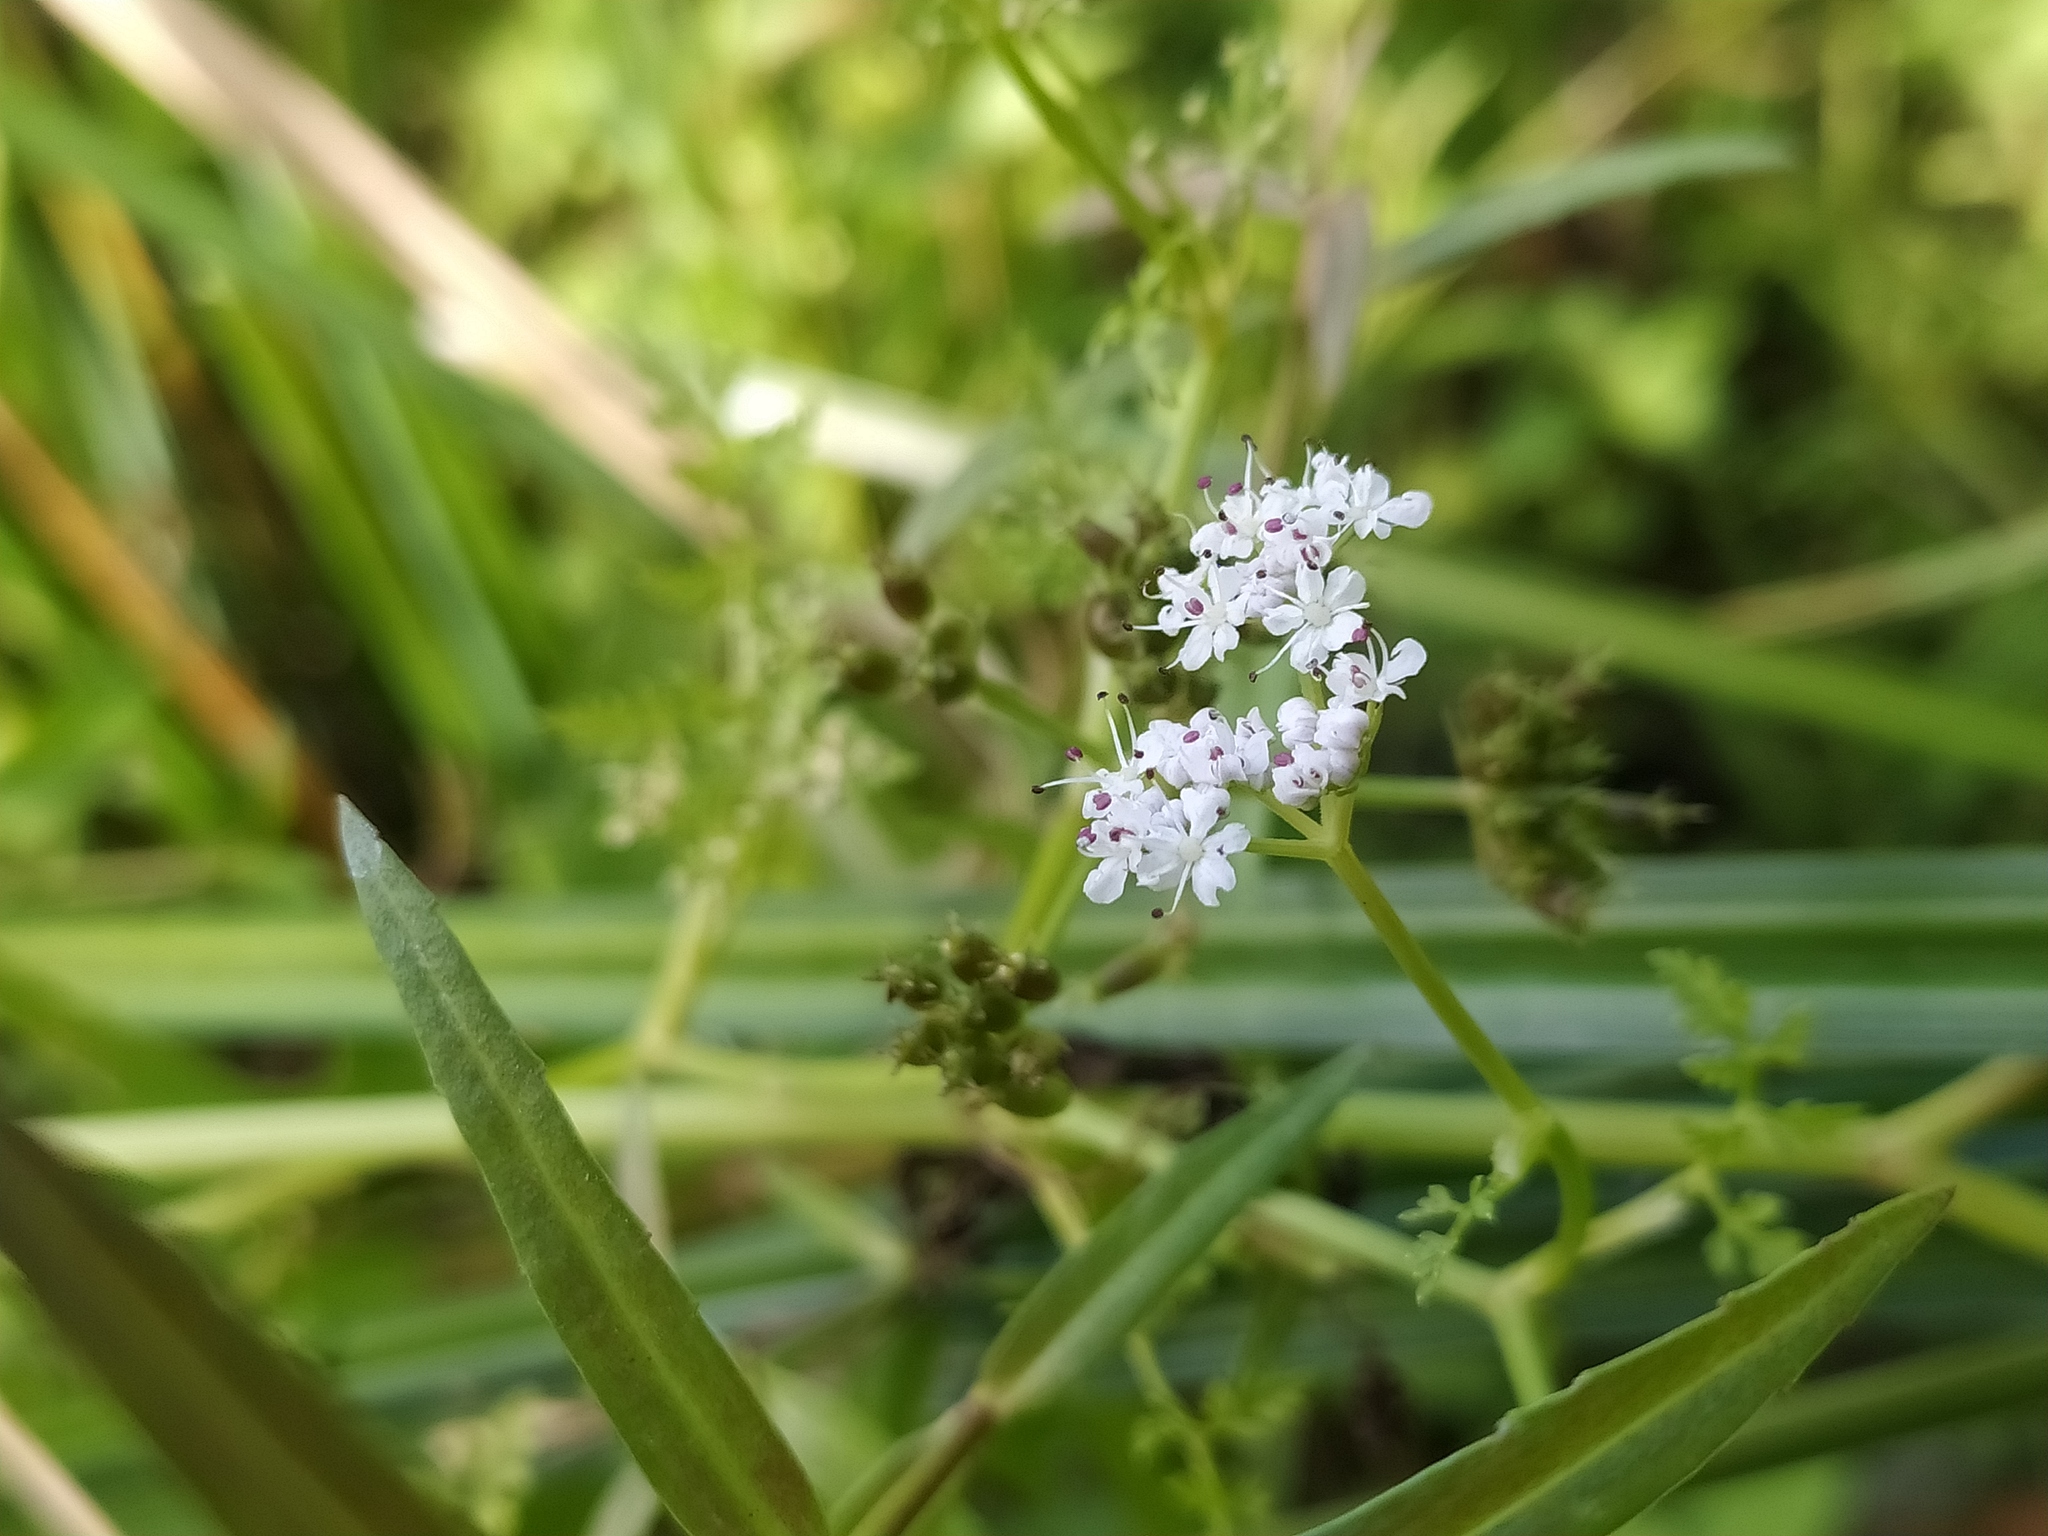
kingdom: Plantae
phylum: Tracheophyta
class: Magnoliopsida
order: Apiales
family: Apiaceae
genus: Oenanthe
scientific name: Oenanthe aquatica
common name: Fine-leaved water-dropwort
